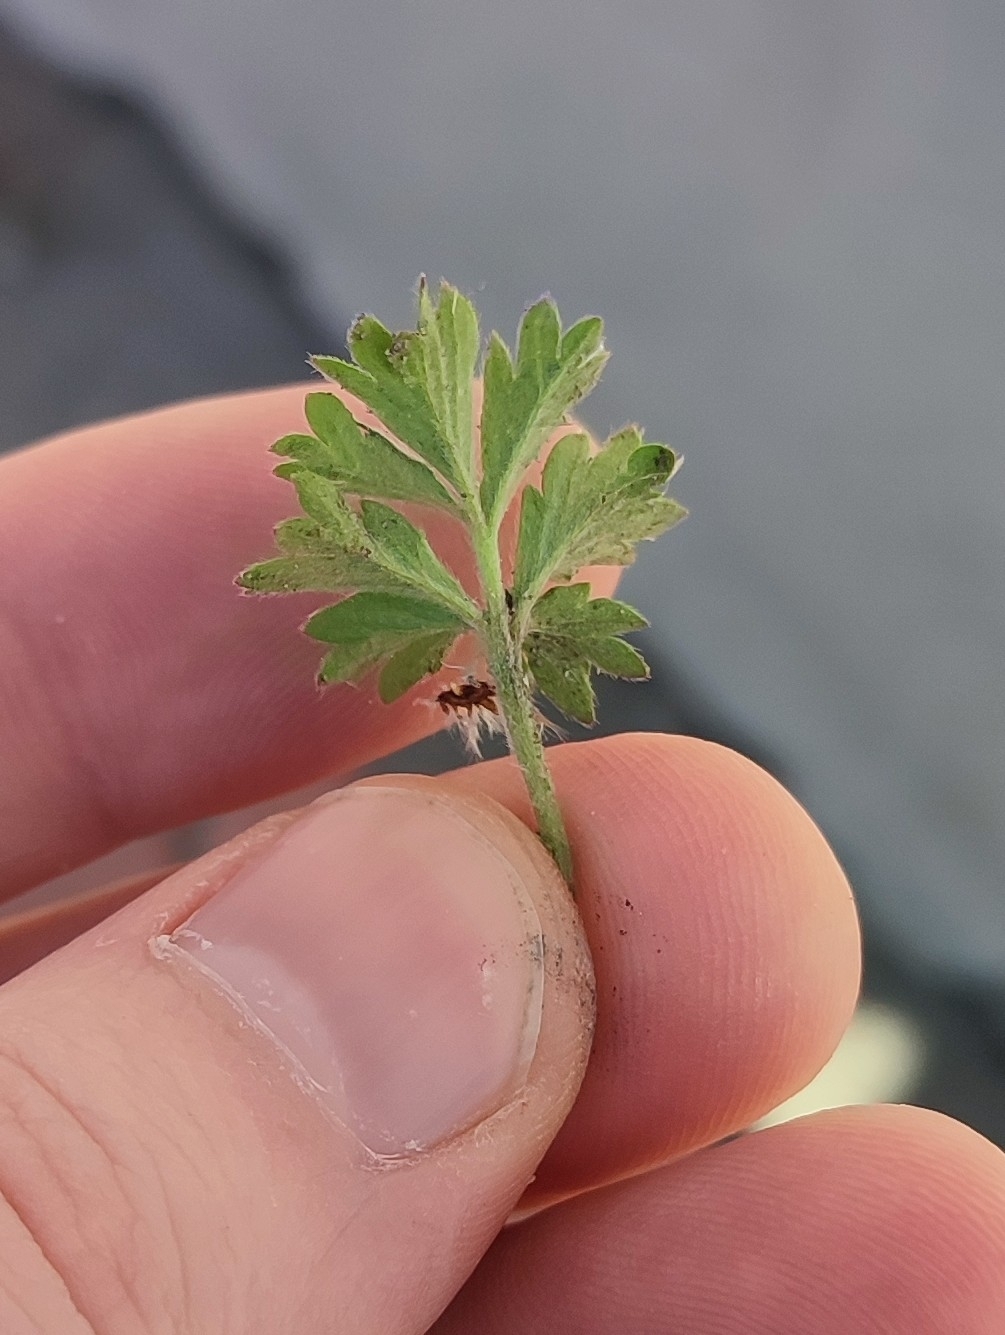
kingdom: Plantae
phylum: Tracheophyta
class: Magnoliopsida
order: Rosales
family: Rosaceae
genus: Potentilla
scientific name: Potentilla tobolensis
